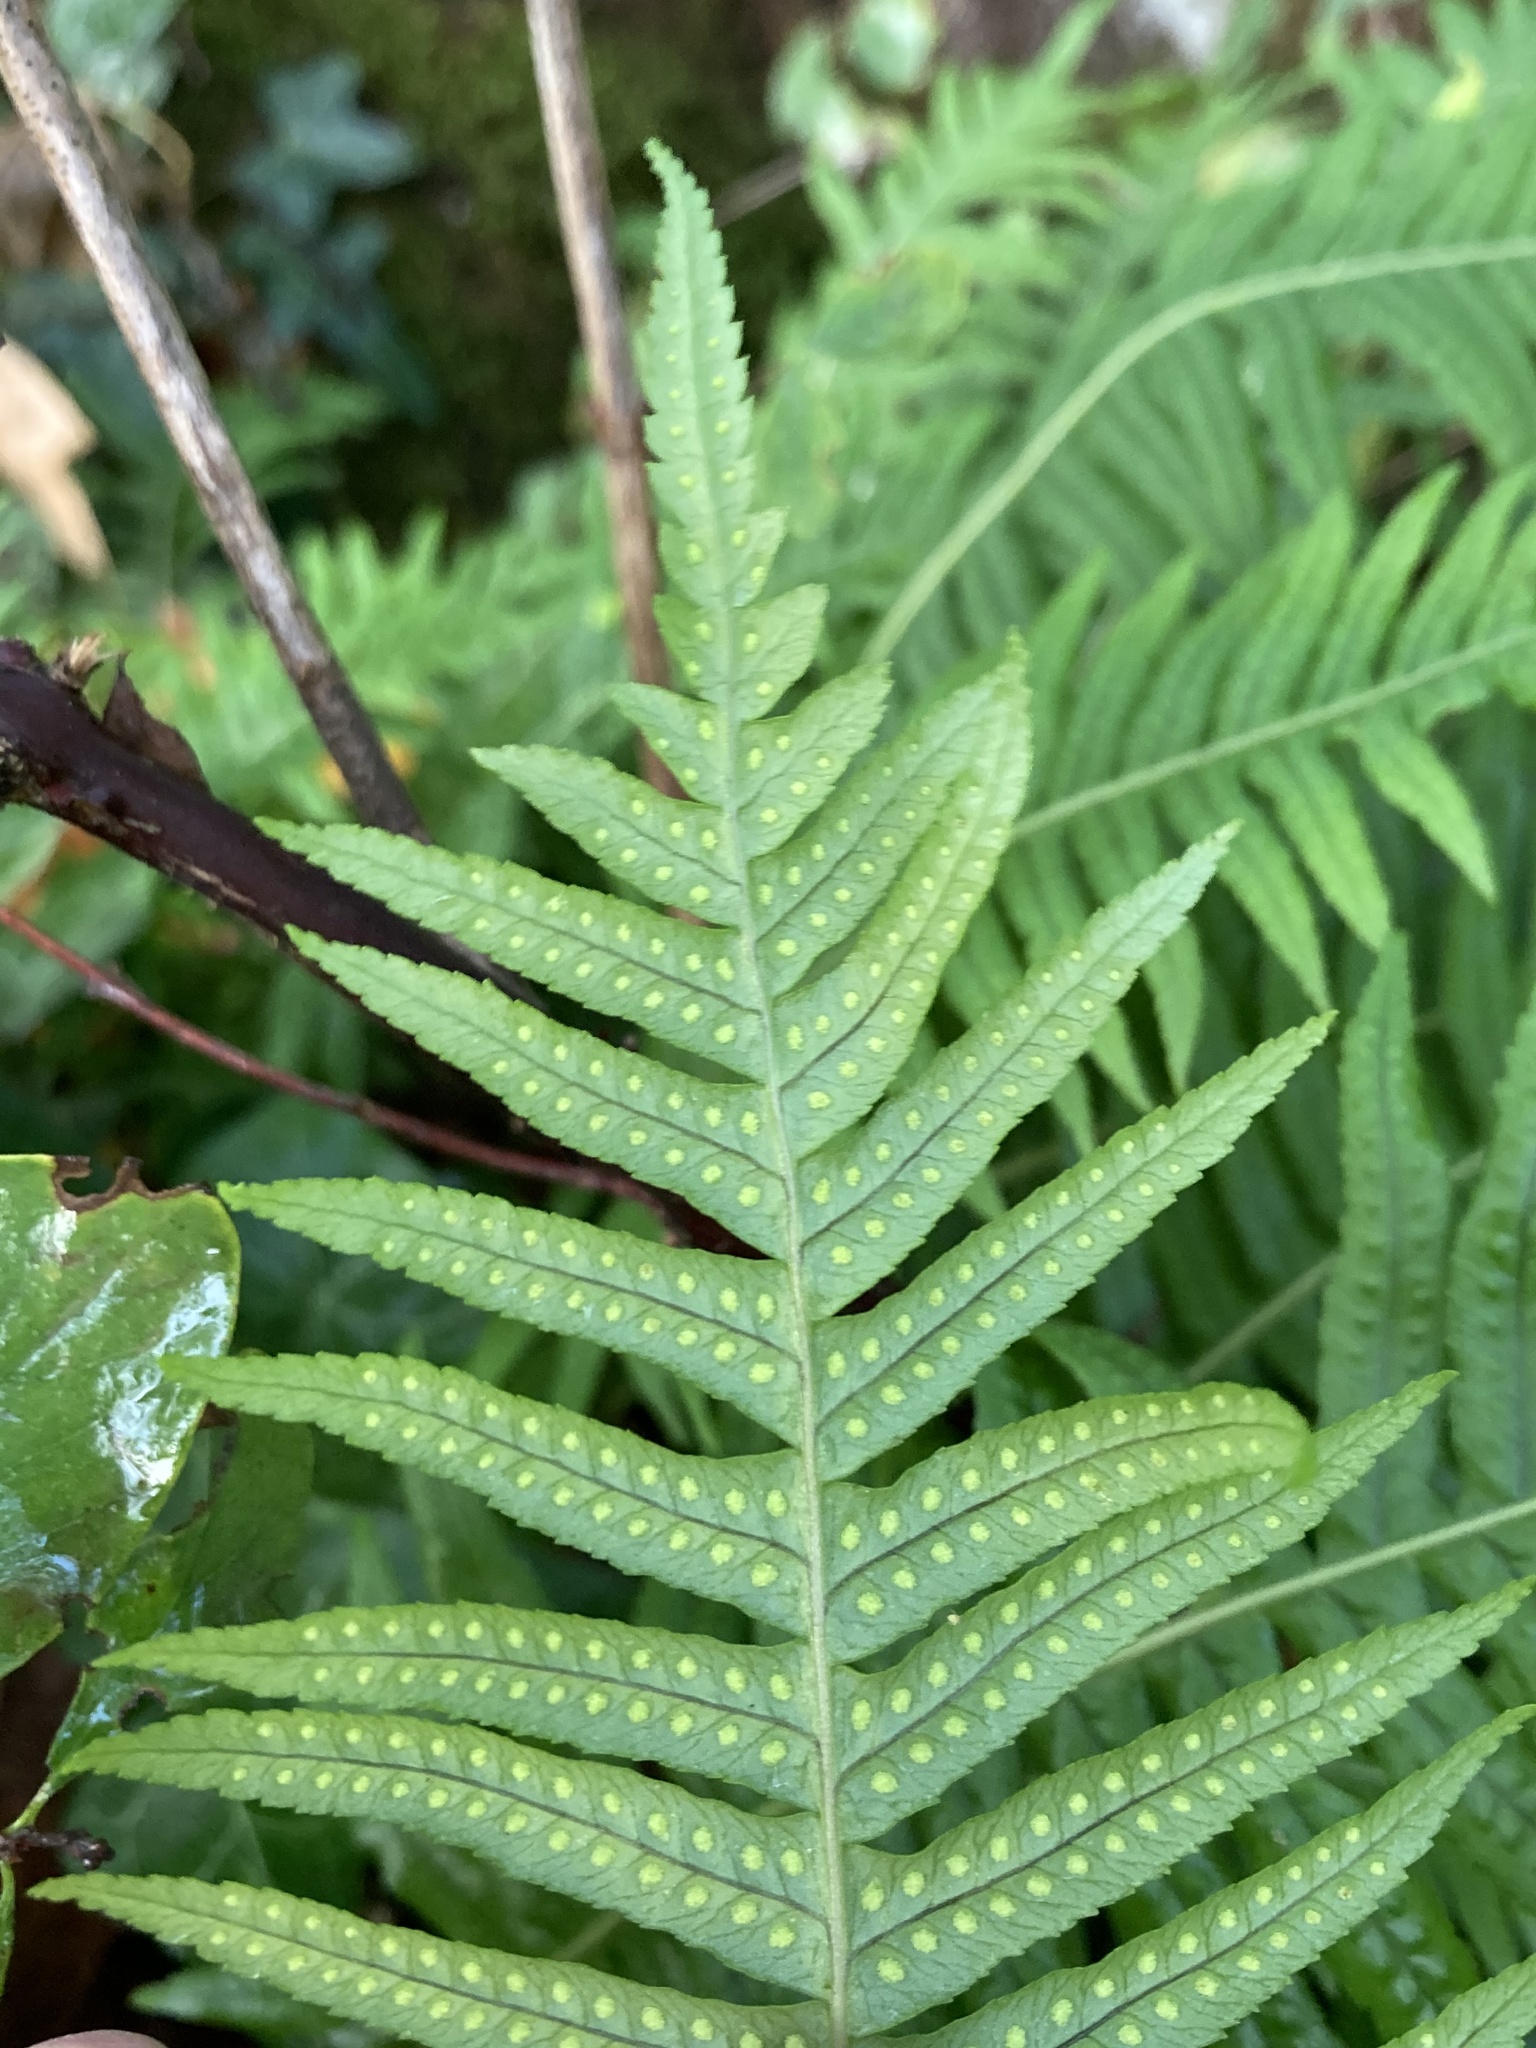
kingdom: Plantae
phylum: Tracheophyta
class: Polypodiopsida
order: Polypodiales
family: Polypodiaceae
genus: Polypodium
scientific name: Polypodium glycyrrhiza
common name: Licorice fern
